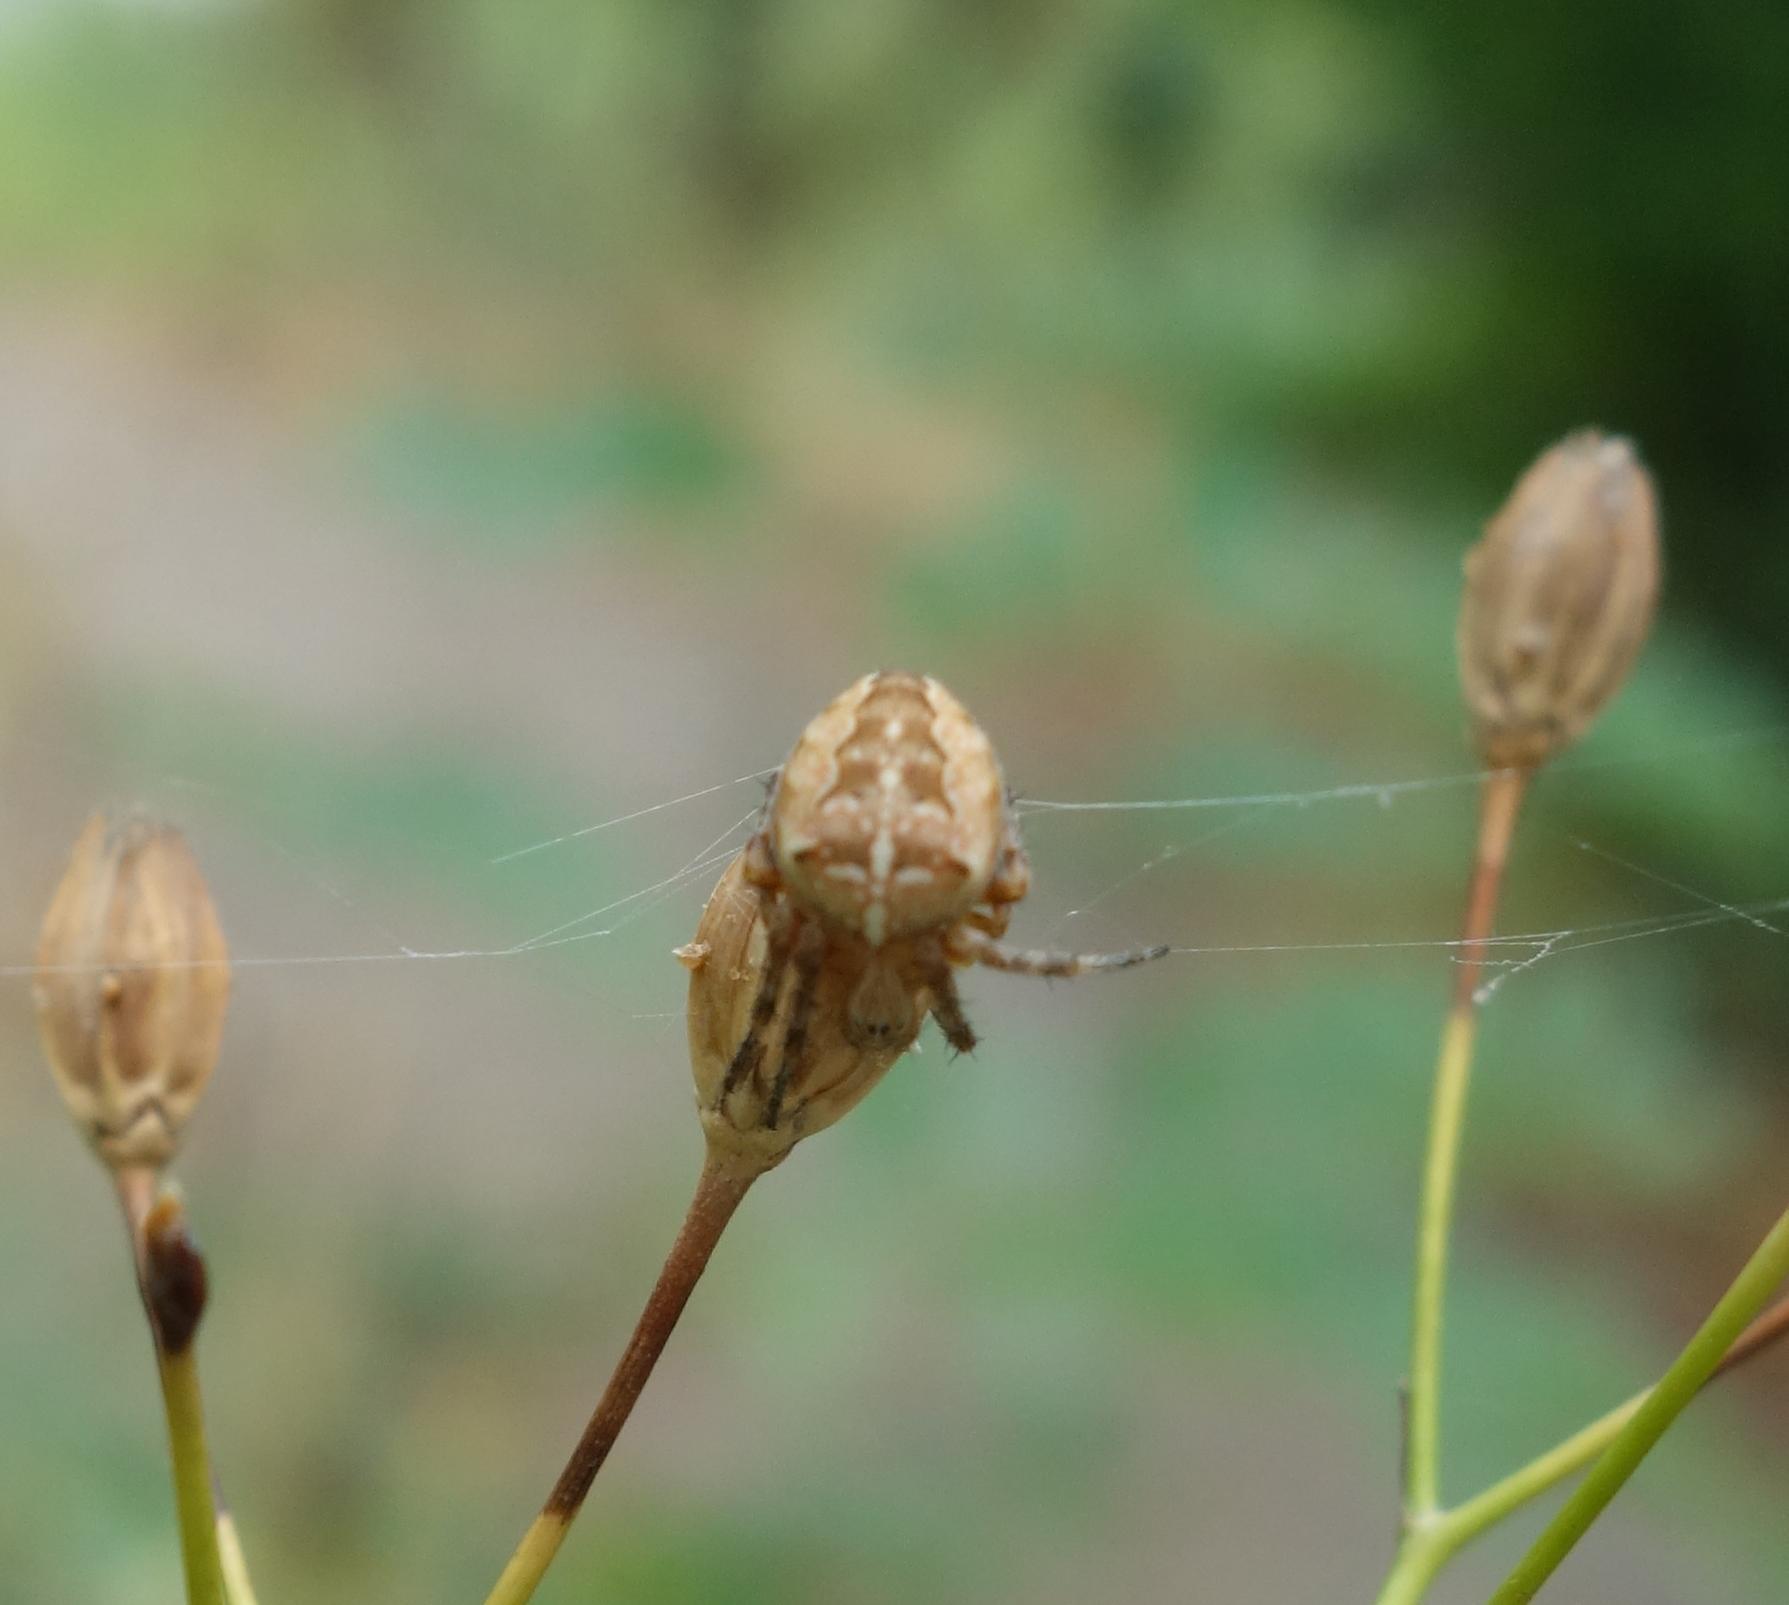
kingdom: Animalia
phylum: Arthropoda
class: Arachnida
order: Araneae
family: Araneidae
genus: Araneus
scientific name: Araneus diadematus
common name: Cross orbweaver
